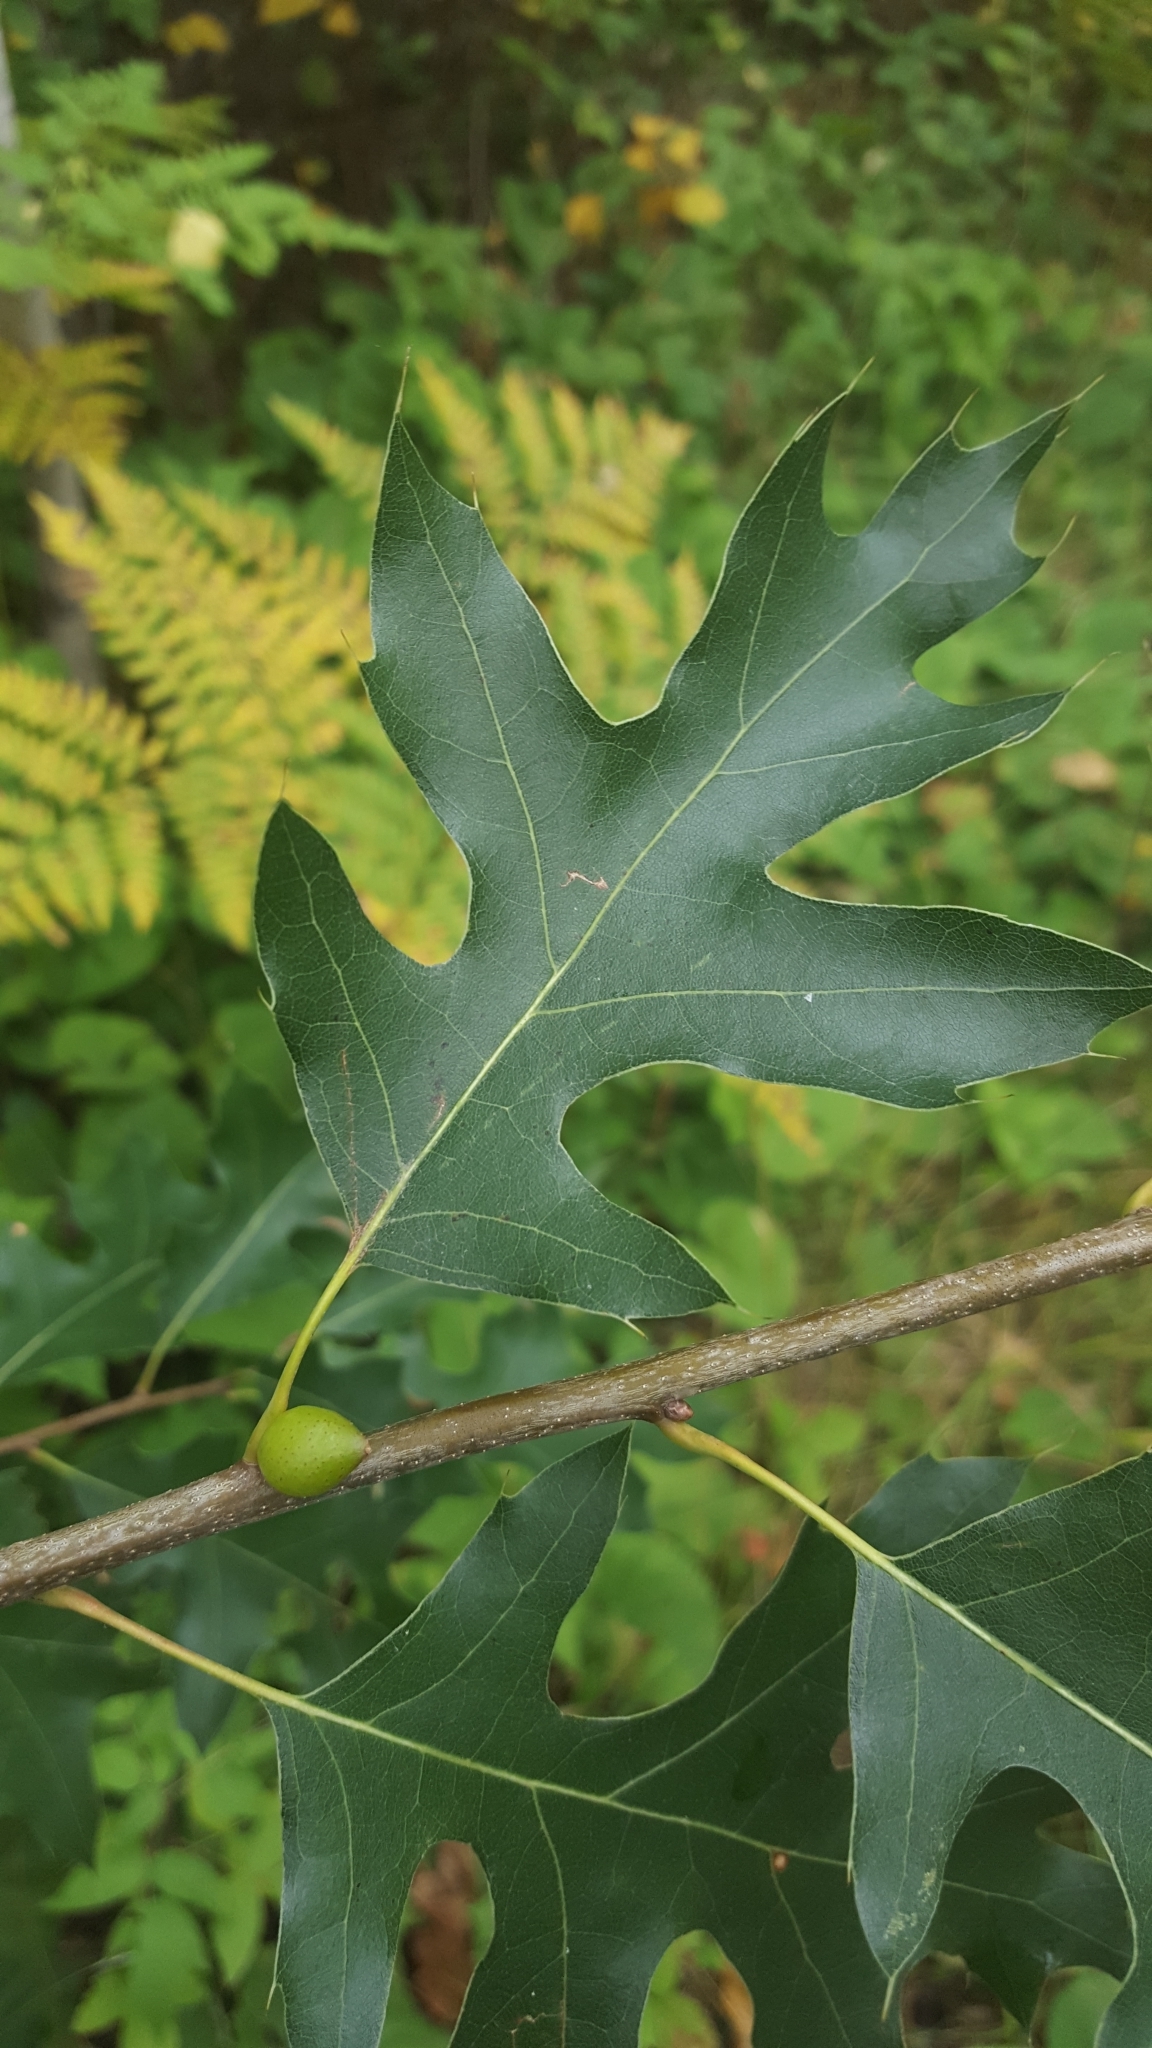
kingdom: Plantae
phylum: Tracheophyta
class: Magnoliopsida
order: Fagales
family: Fagaceae
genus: Quercus
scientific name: Quercus ellipsoidalis
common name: Hill's oak
